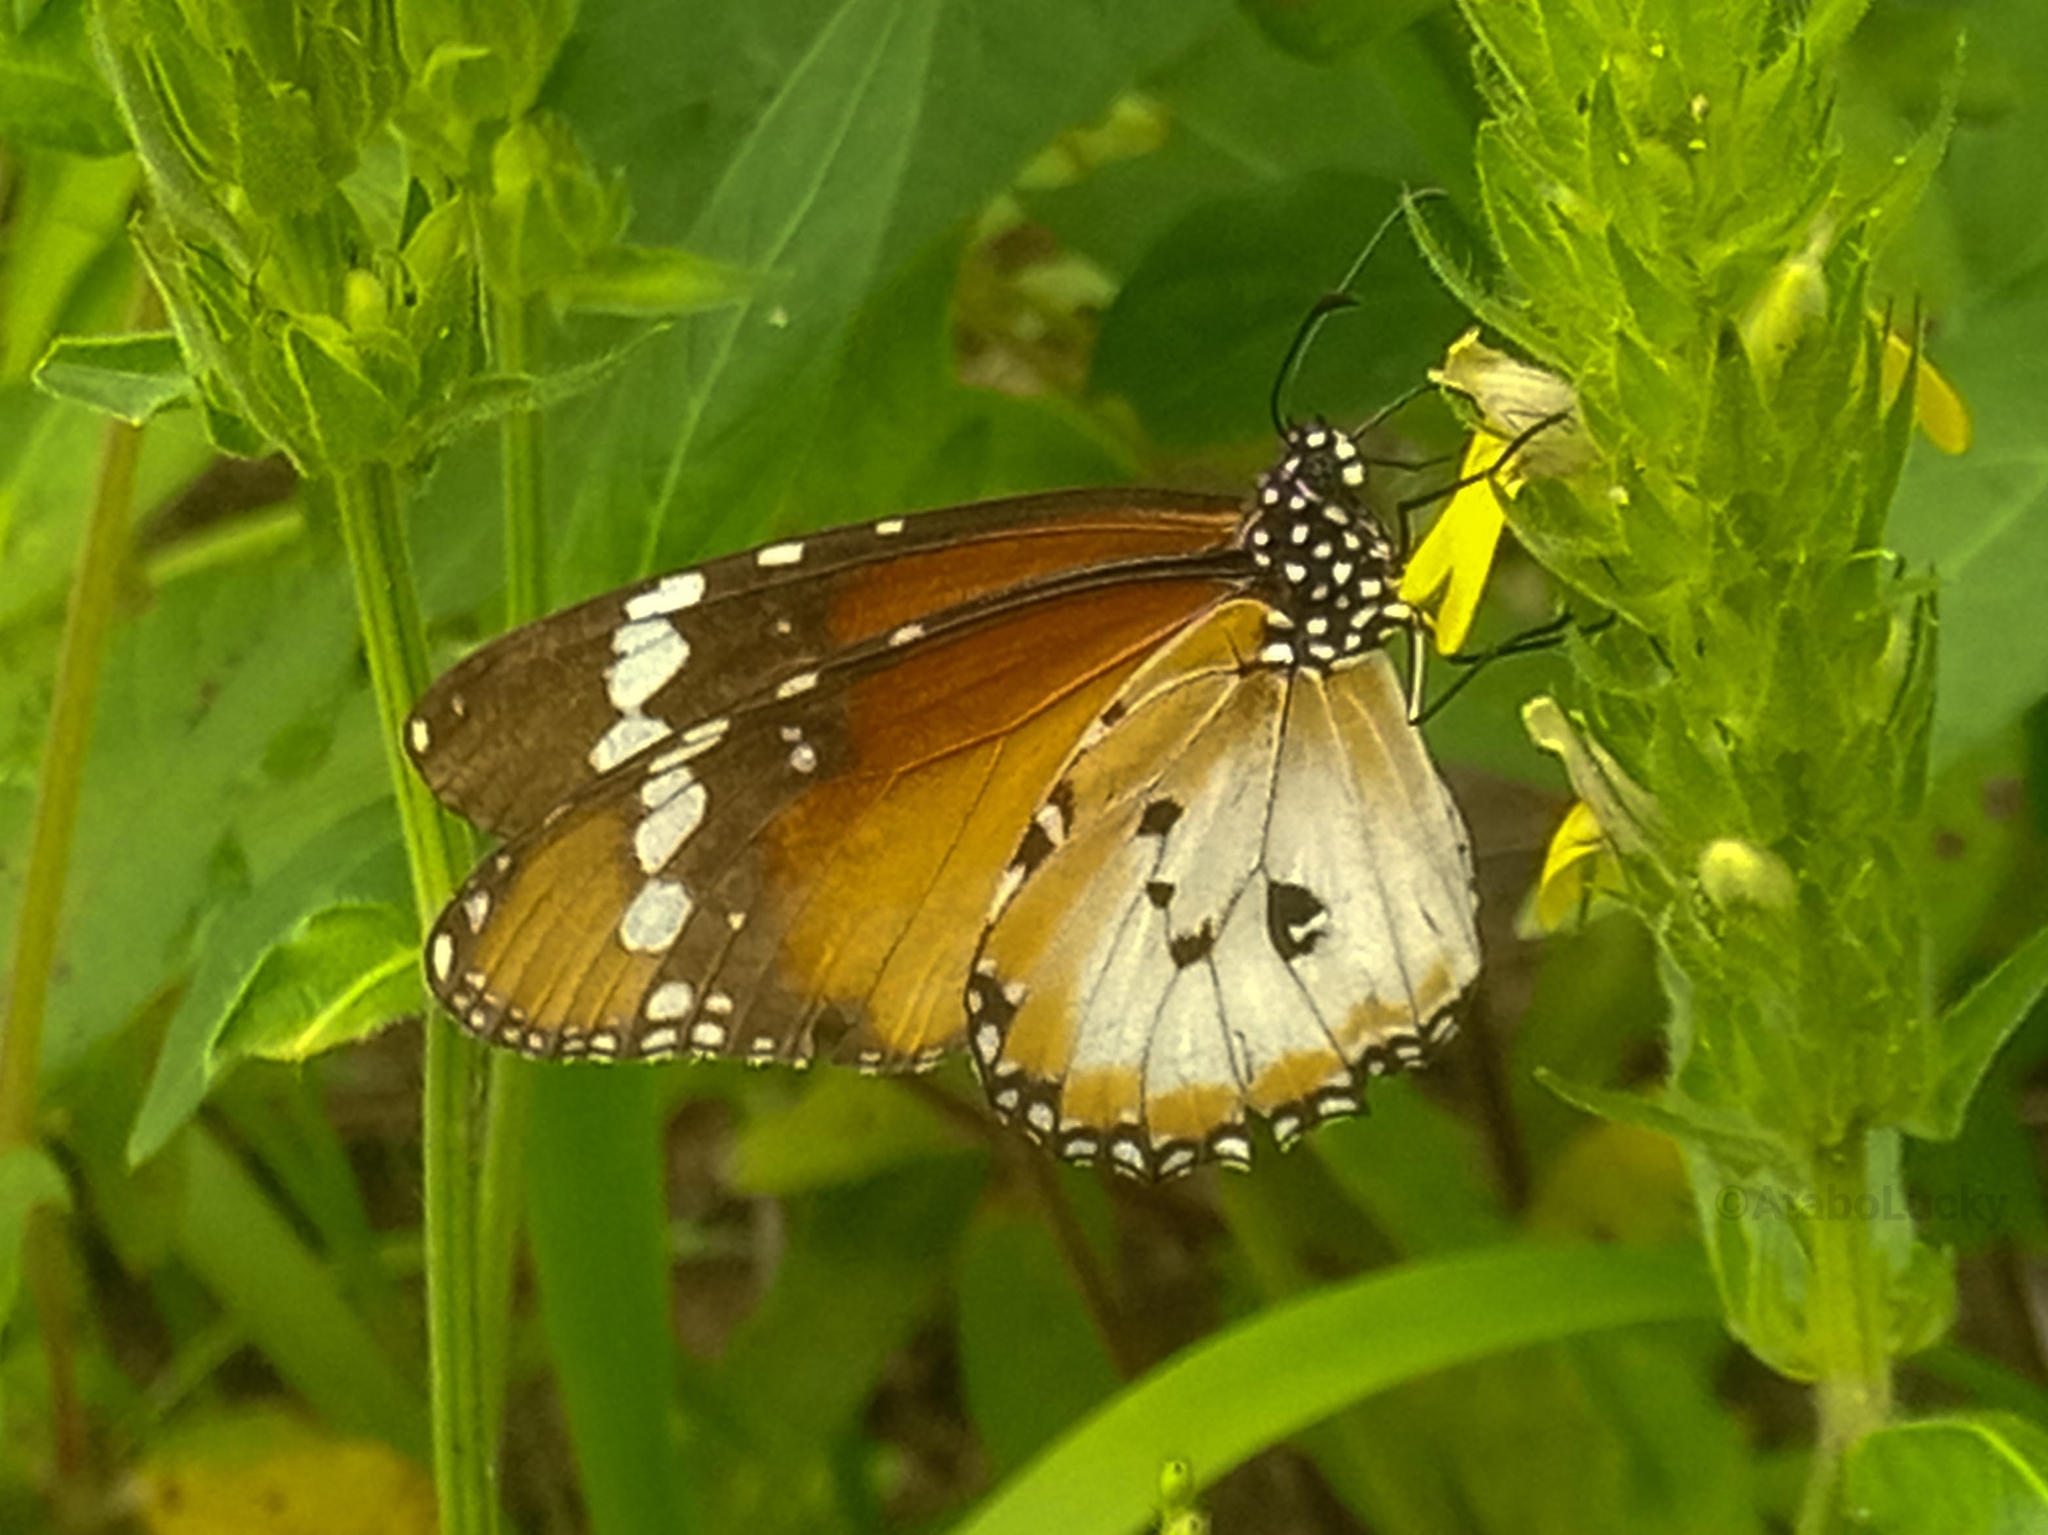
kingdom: Animalia
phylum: Arthropoda
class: Insecta
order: Lepidoptera
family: Nymphalidae
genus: Danaus
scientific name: Danaus chrysippus
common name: Plain tiger
